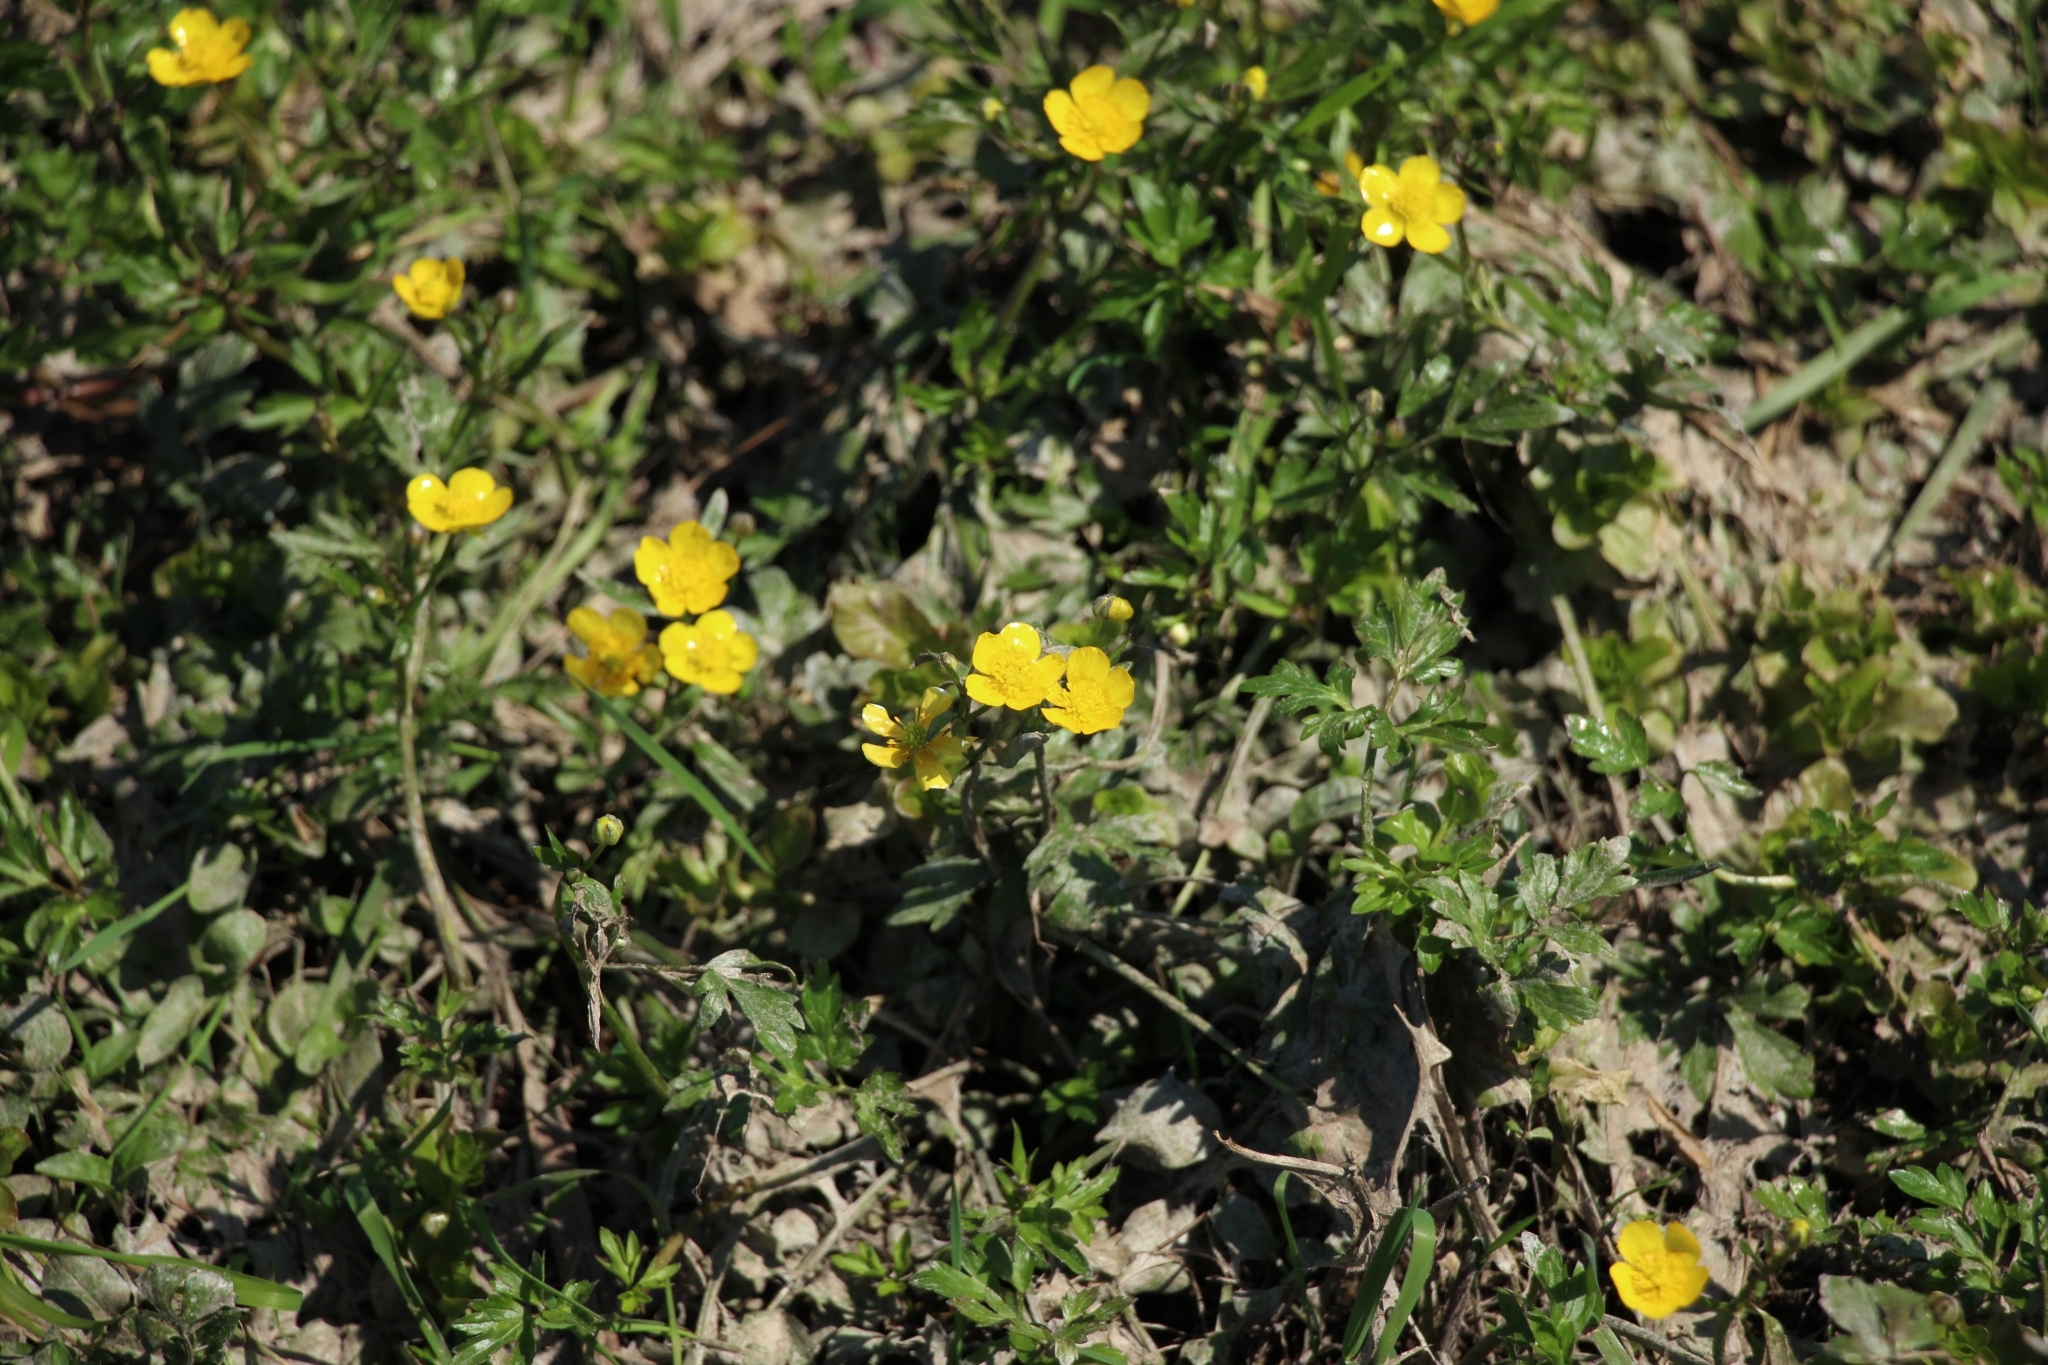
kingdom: Plantae
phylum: Tracheophyta
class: Magnoliopsida
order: Ranunculales
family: Ranunculaceae
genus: Ranunculus
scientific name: Ranunculus repens
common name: Creeping buttercup
